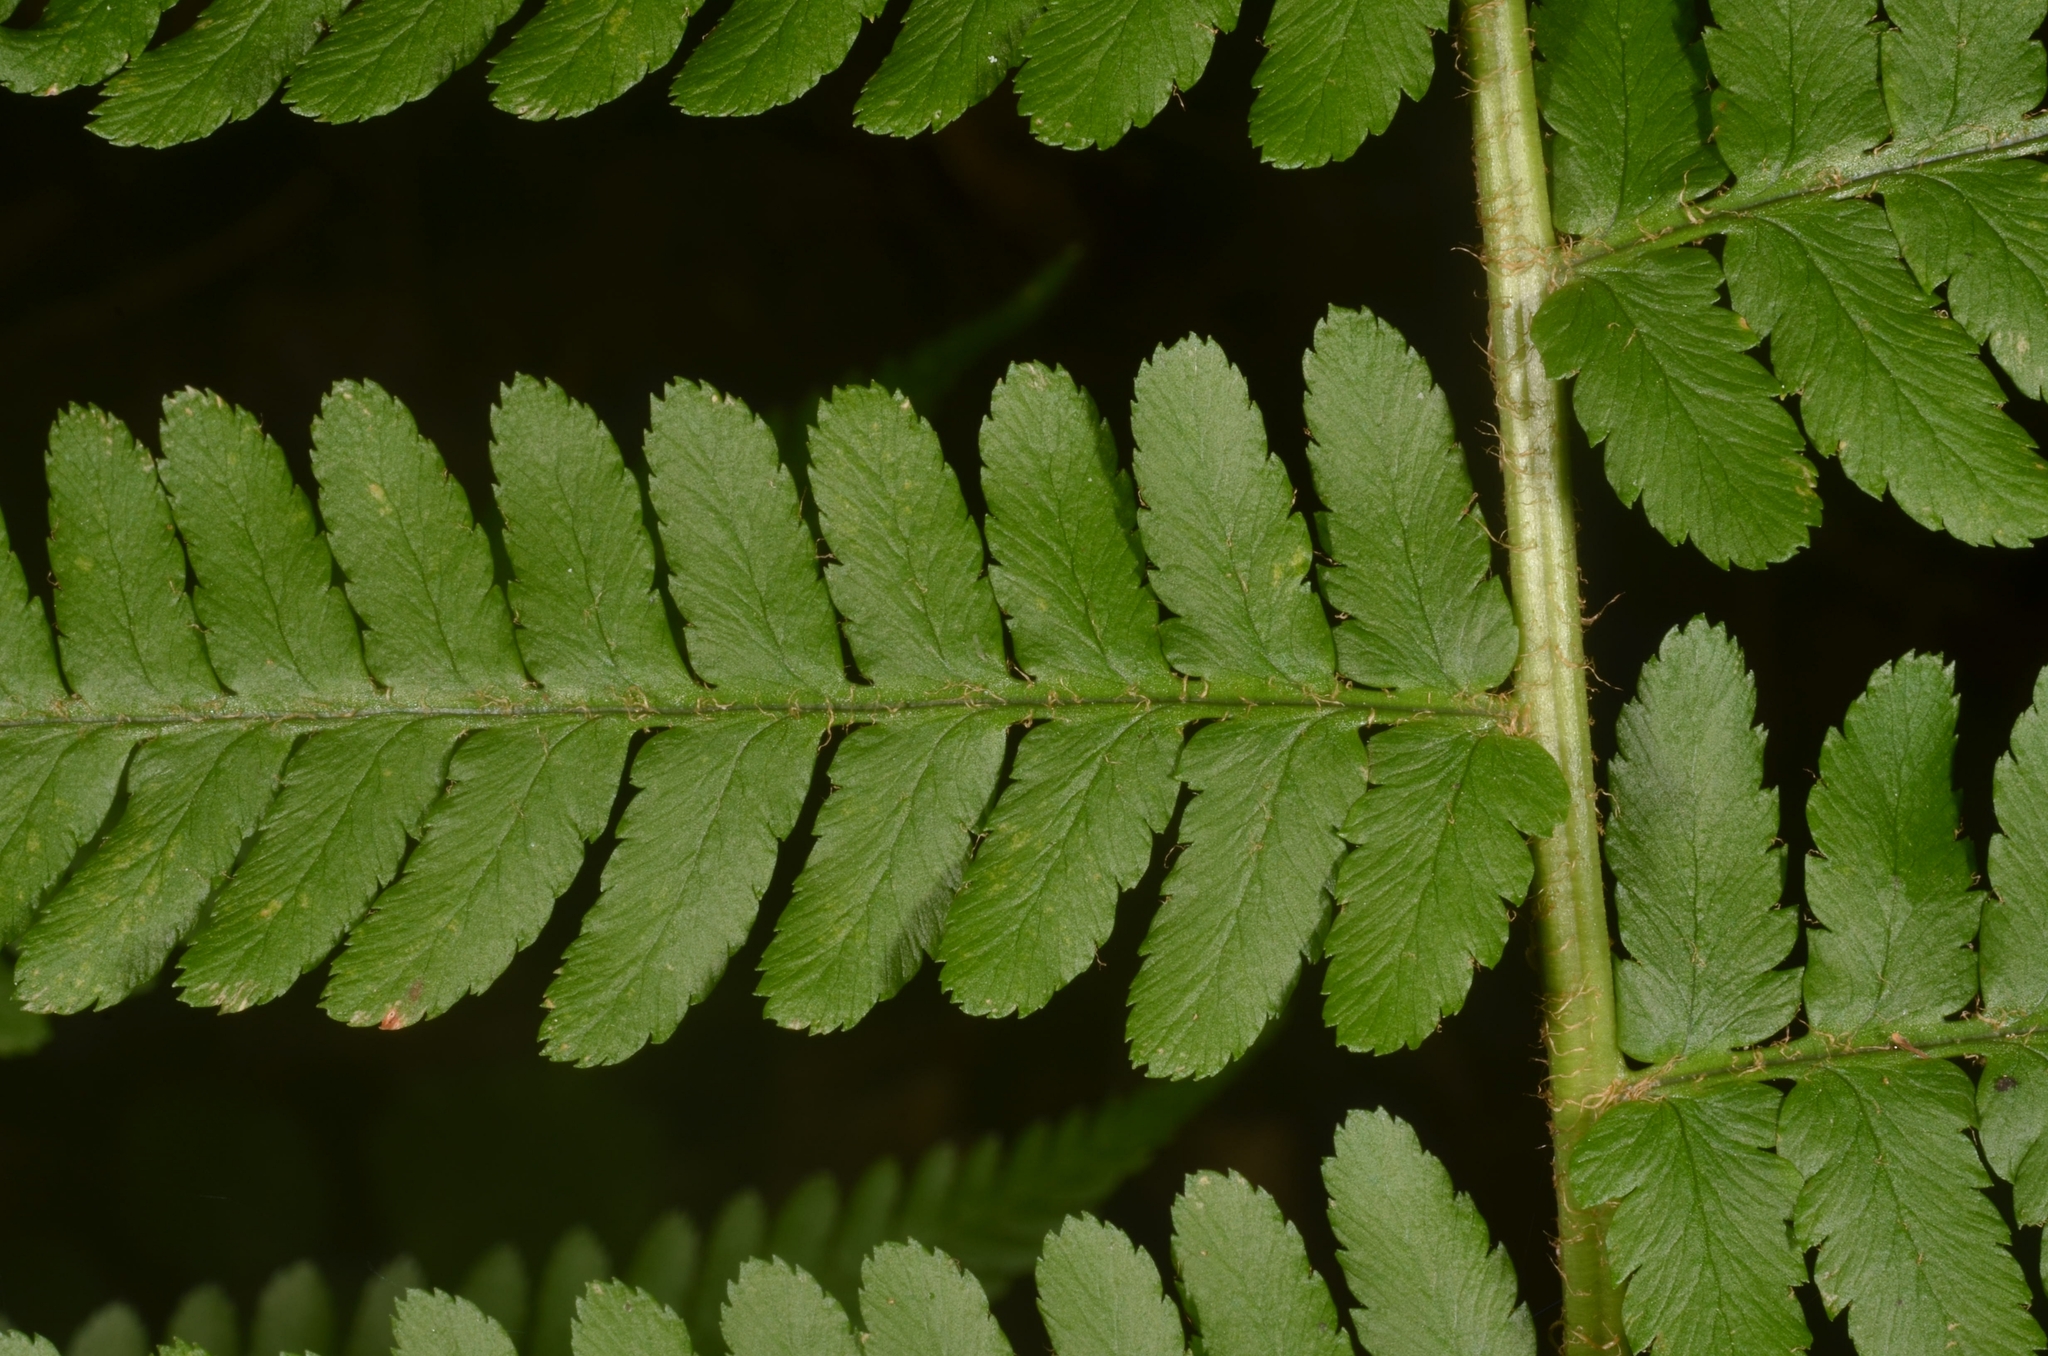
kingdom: Plantae
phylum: Tracheophyta
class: Polypodiopsida
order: Polypodiales
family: Dryopteridaceae
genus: Dryopteris
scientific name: Dryopteris filix-mas
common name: Male fern
